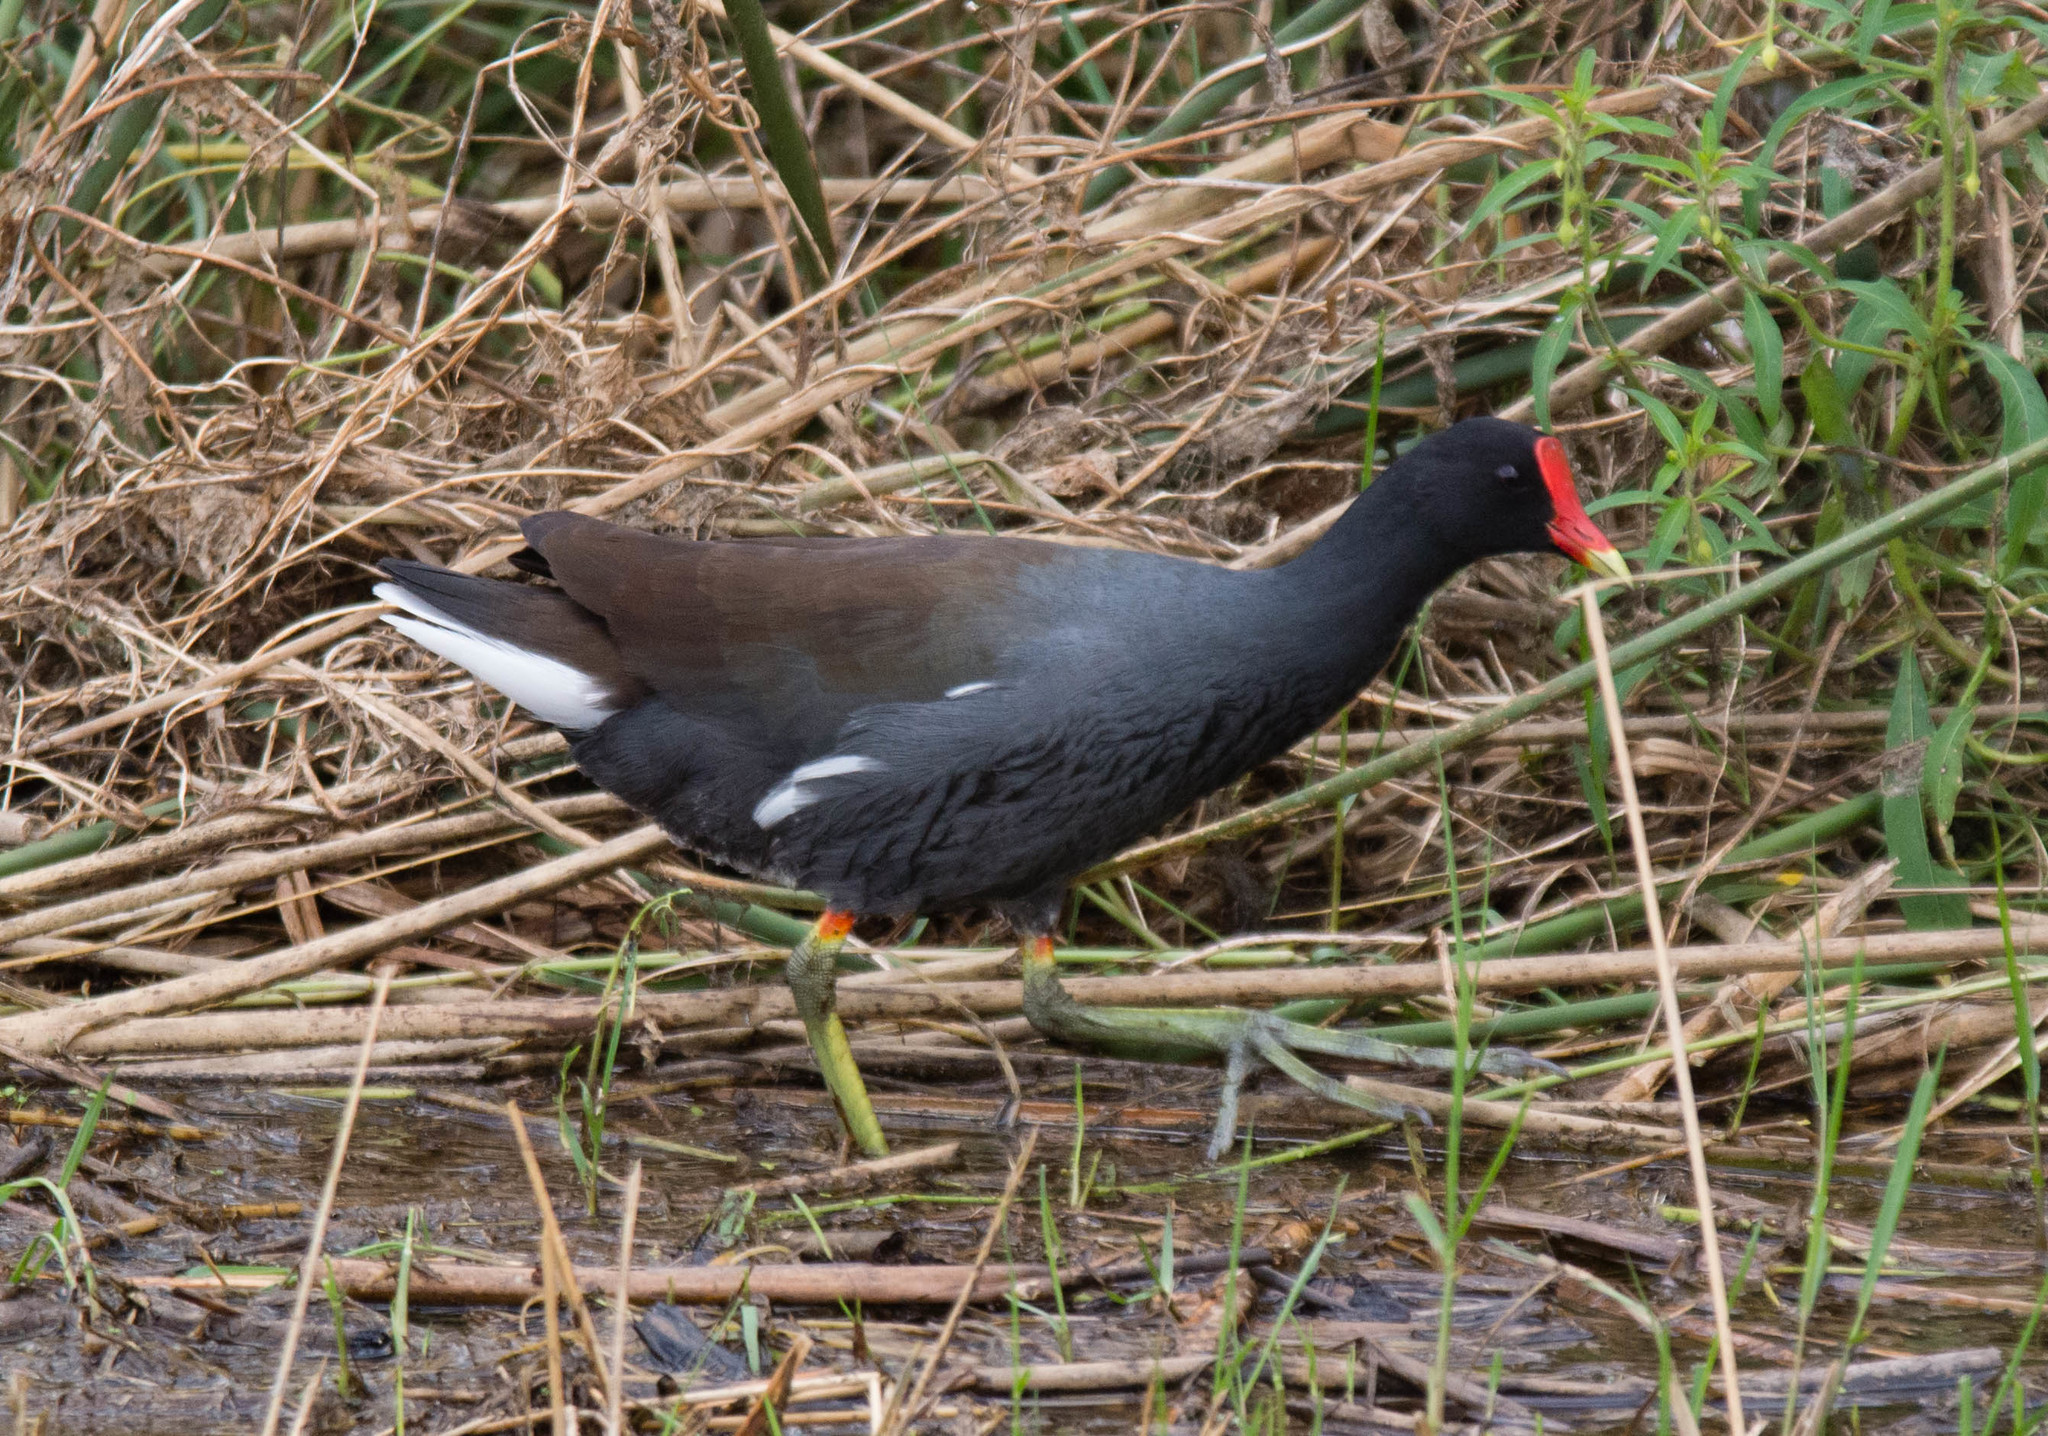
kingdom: Animalia
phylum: Chordata
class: Aves
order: Gruiformes
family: Rallidae
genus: Gallinula
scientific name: Gallinula chloropus
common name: Common moorhen
